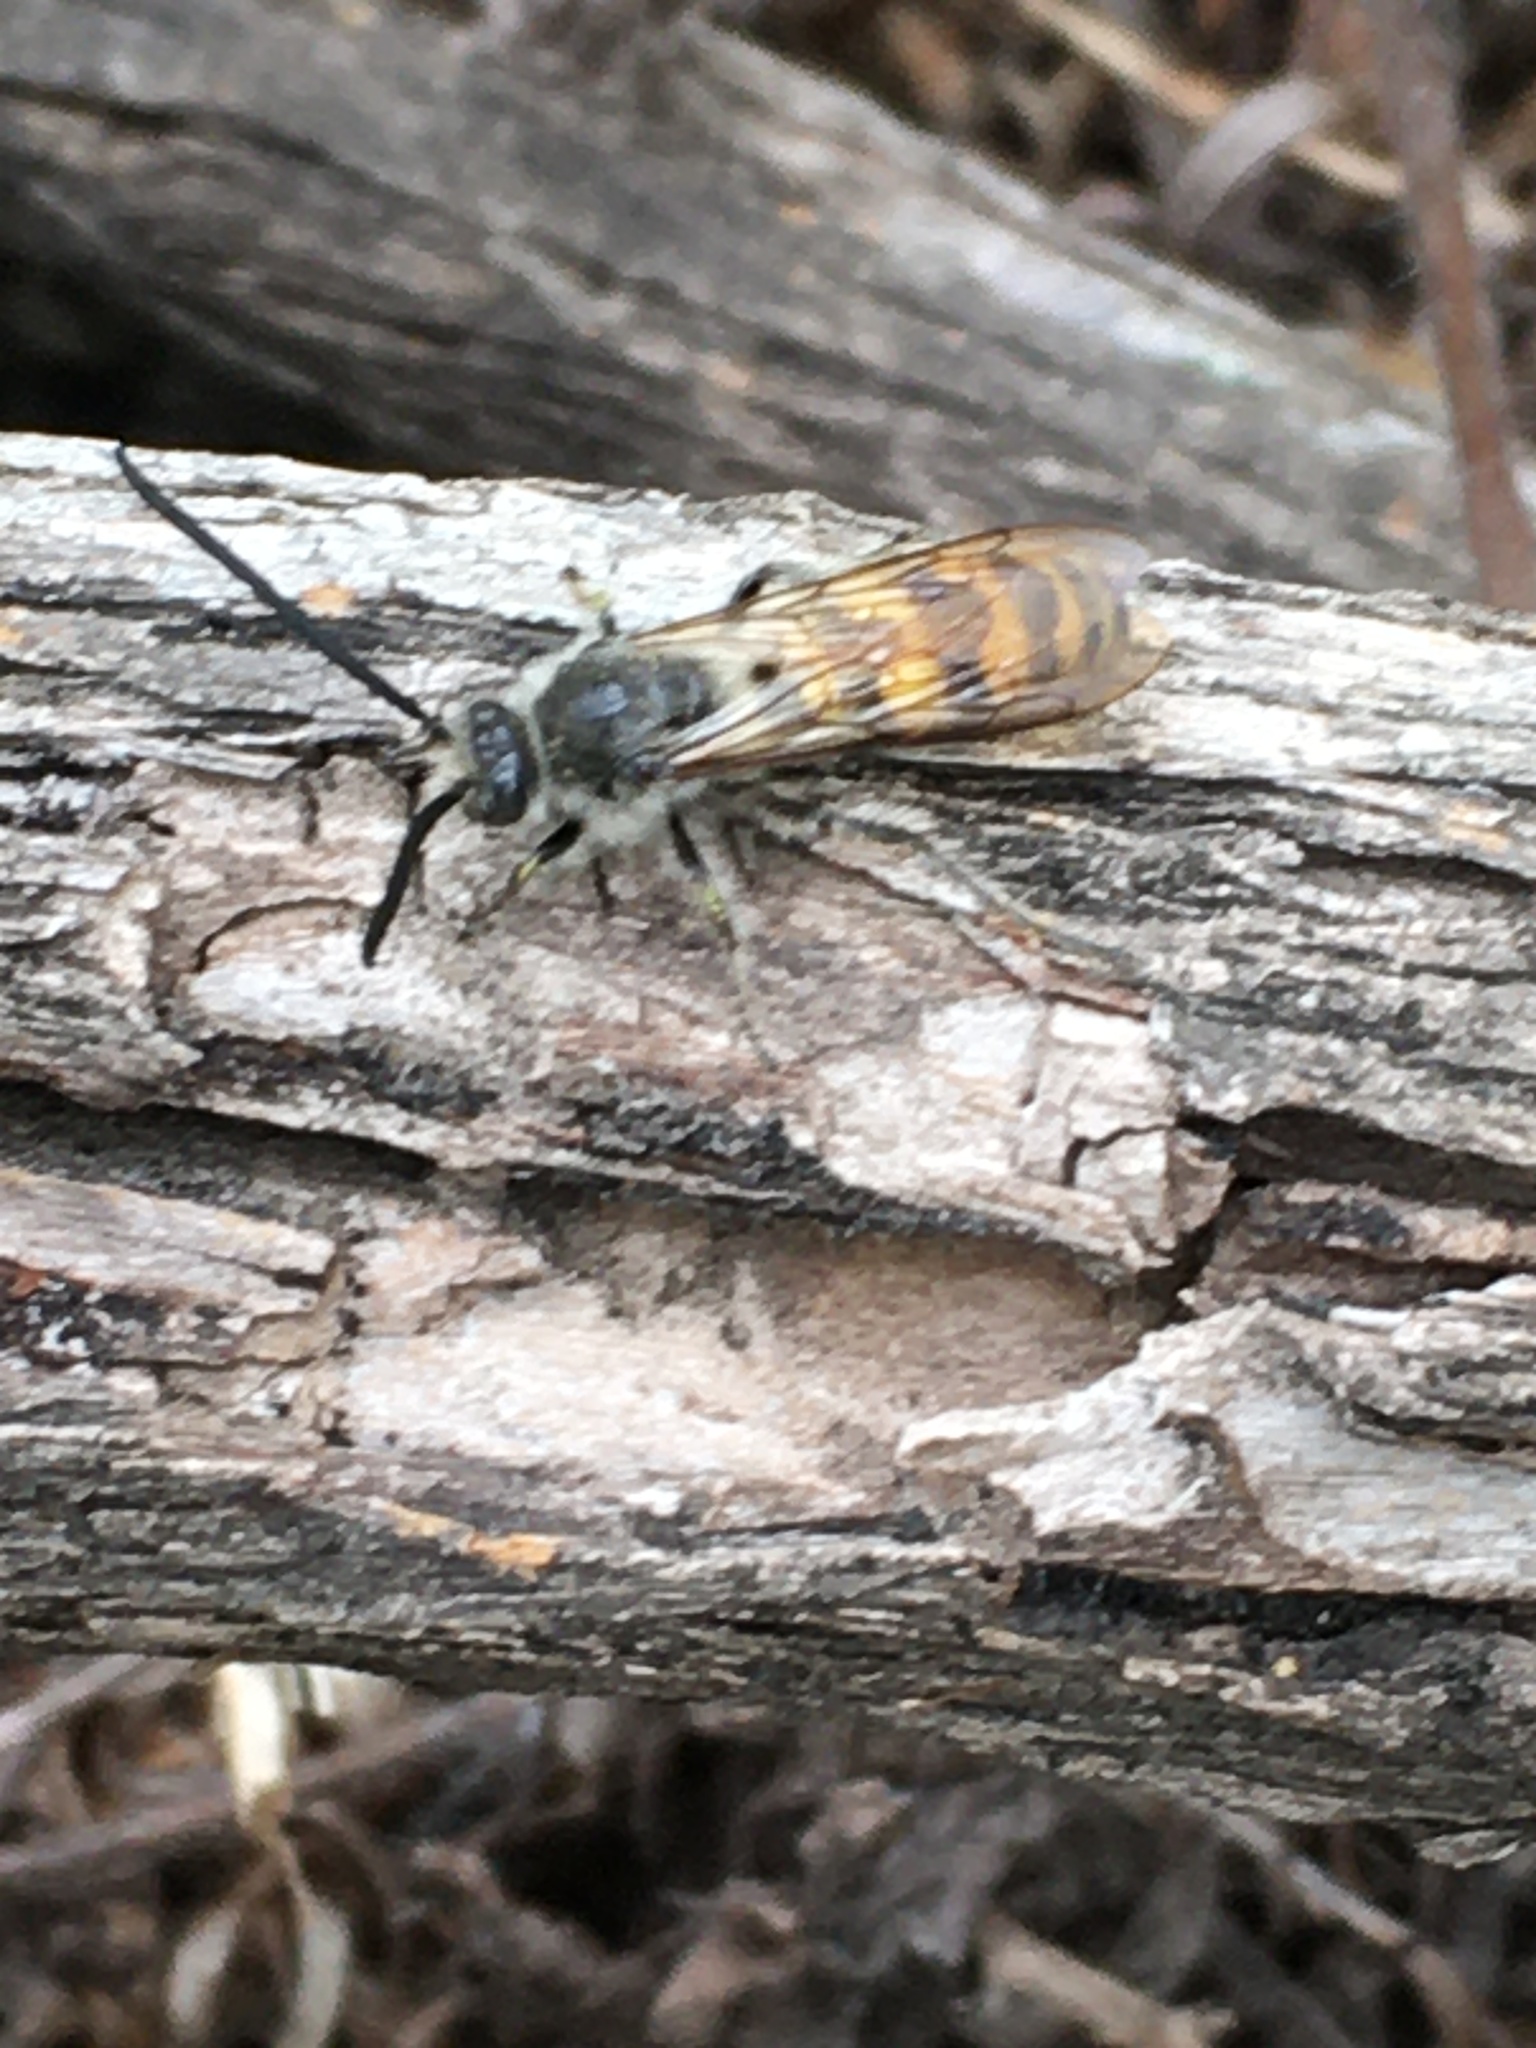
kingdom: Animalia
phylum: Arthropoda
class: Insecta
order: Hymenoptera
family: Scoliidae
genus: Dielis
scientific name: Dielis tolteca
